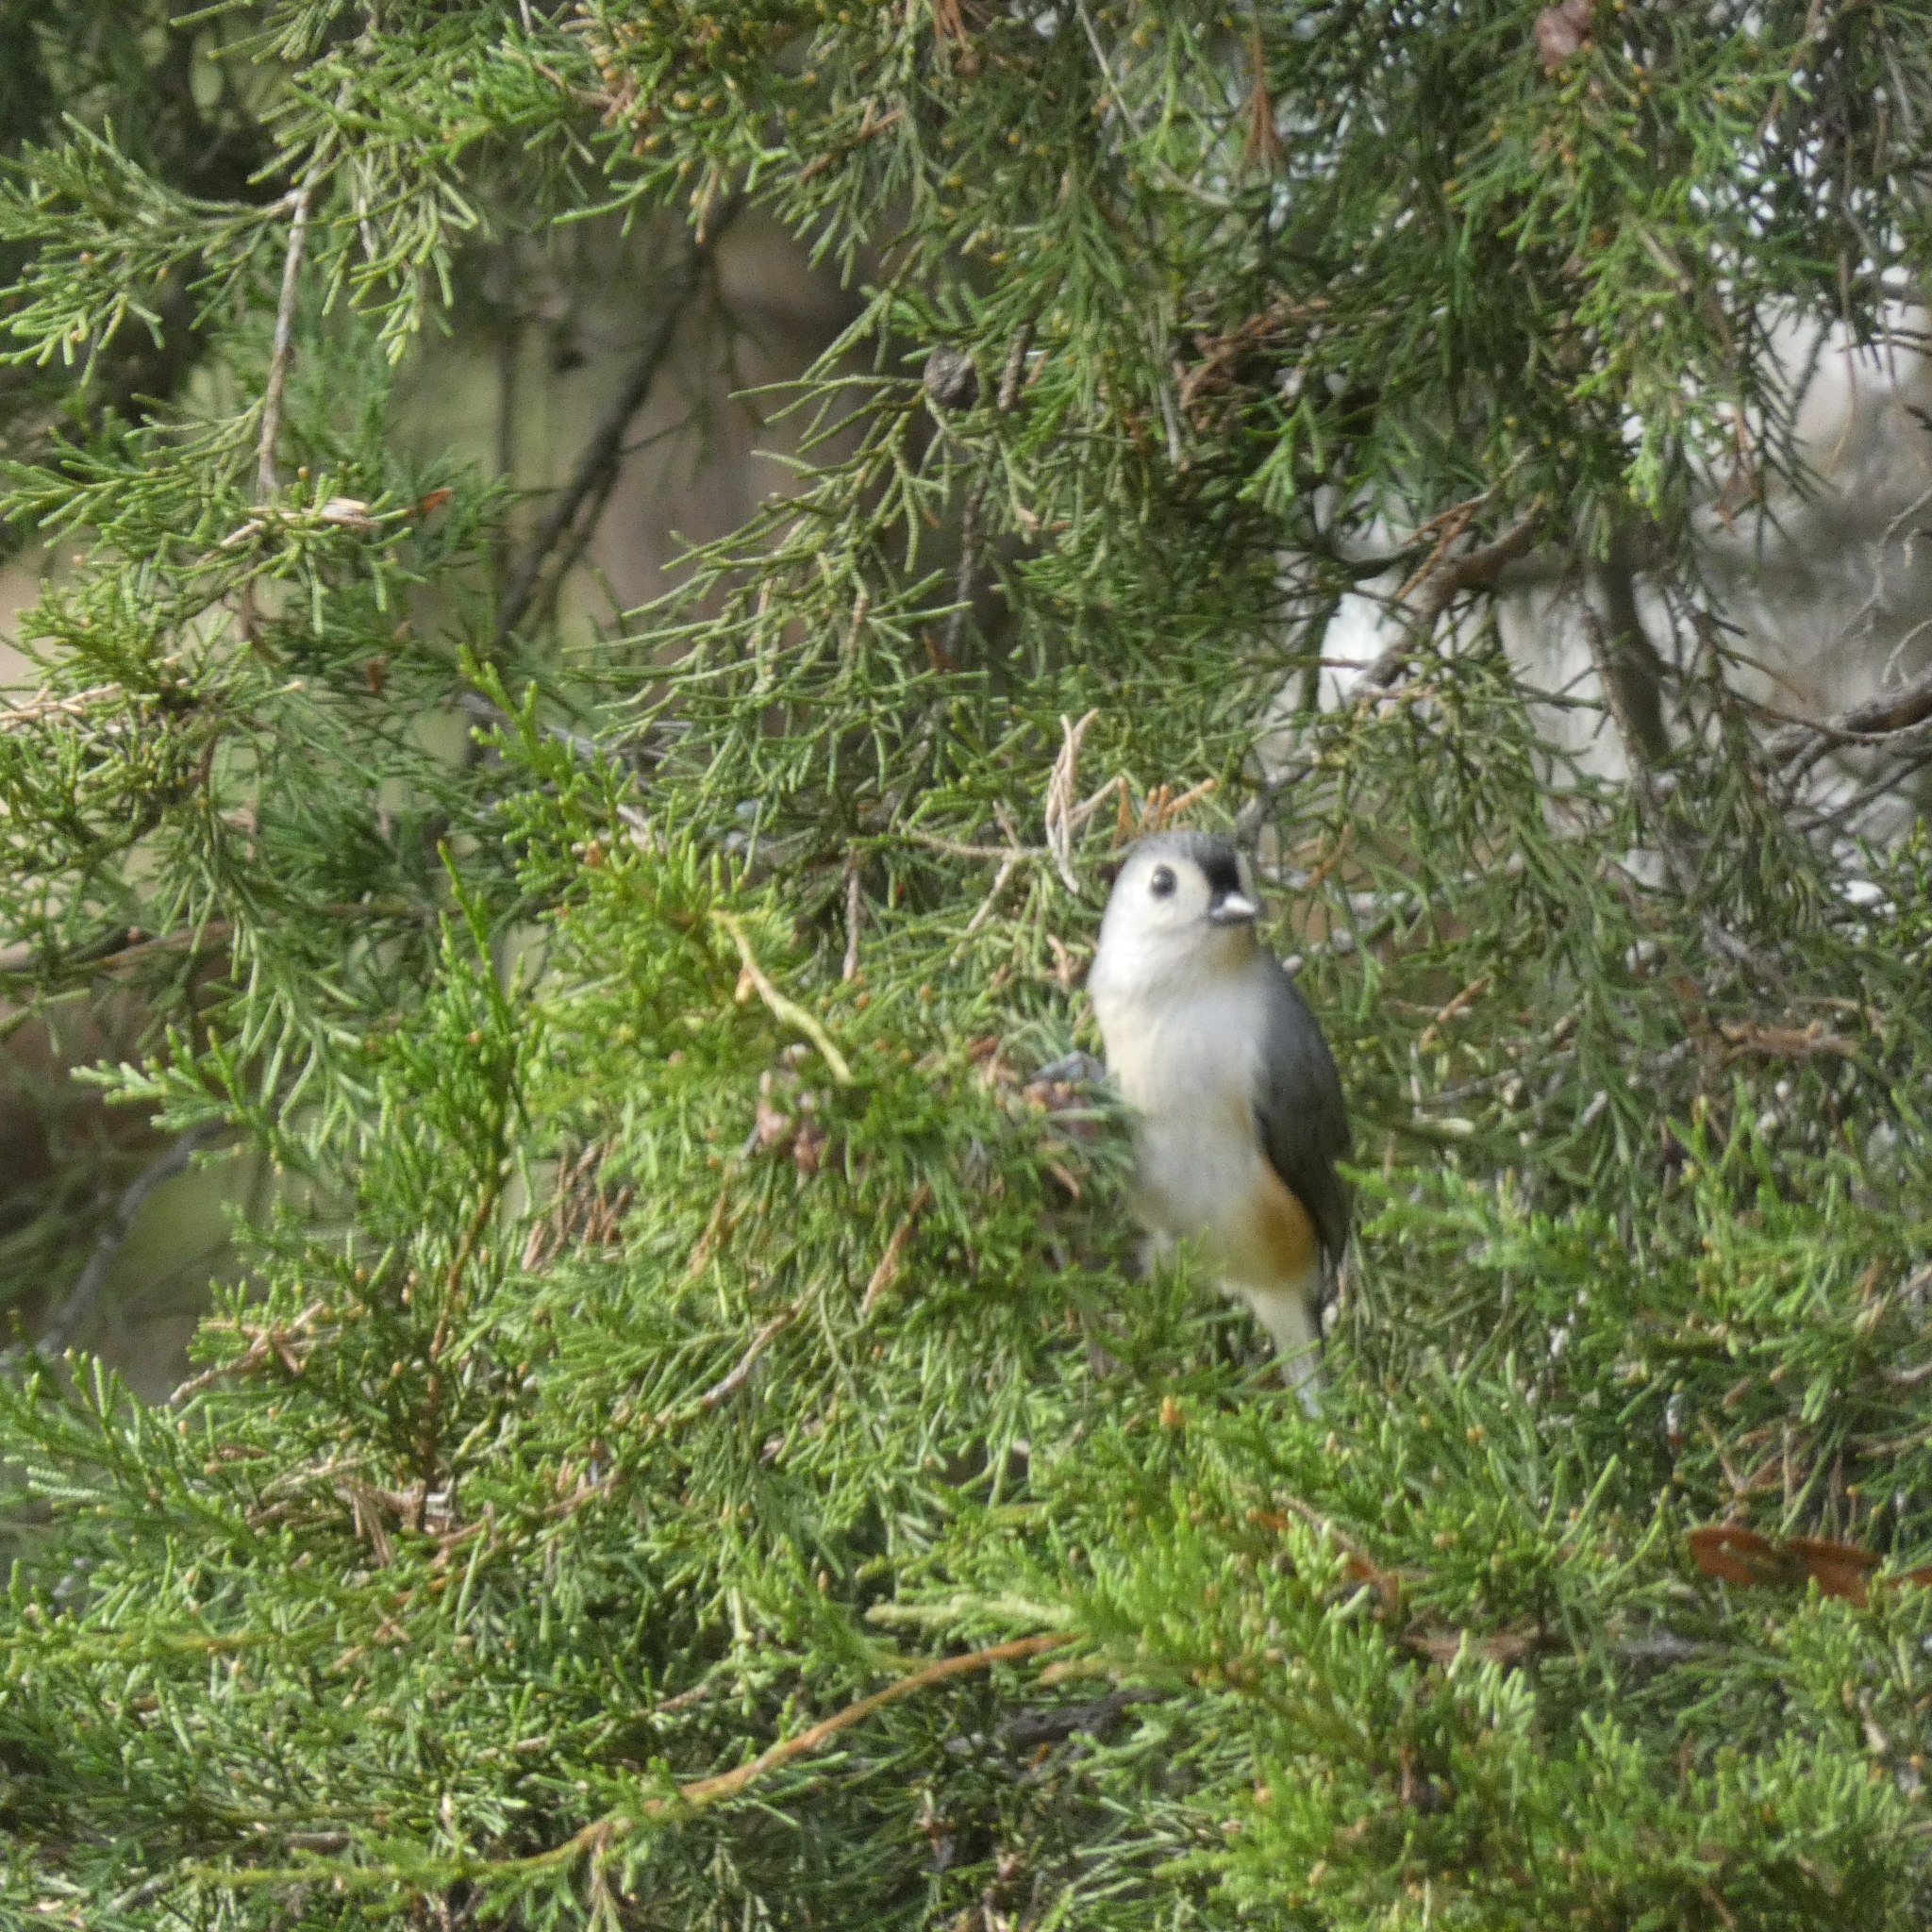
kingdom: Animalia
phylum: Chordata
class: Aves
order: Passeriformes
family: Paridae
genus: Baeolophus
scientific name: Baeolophus bicolor
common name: Tufted titmouse
